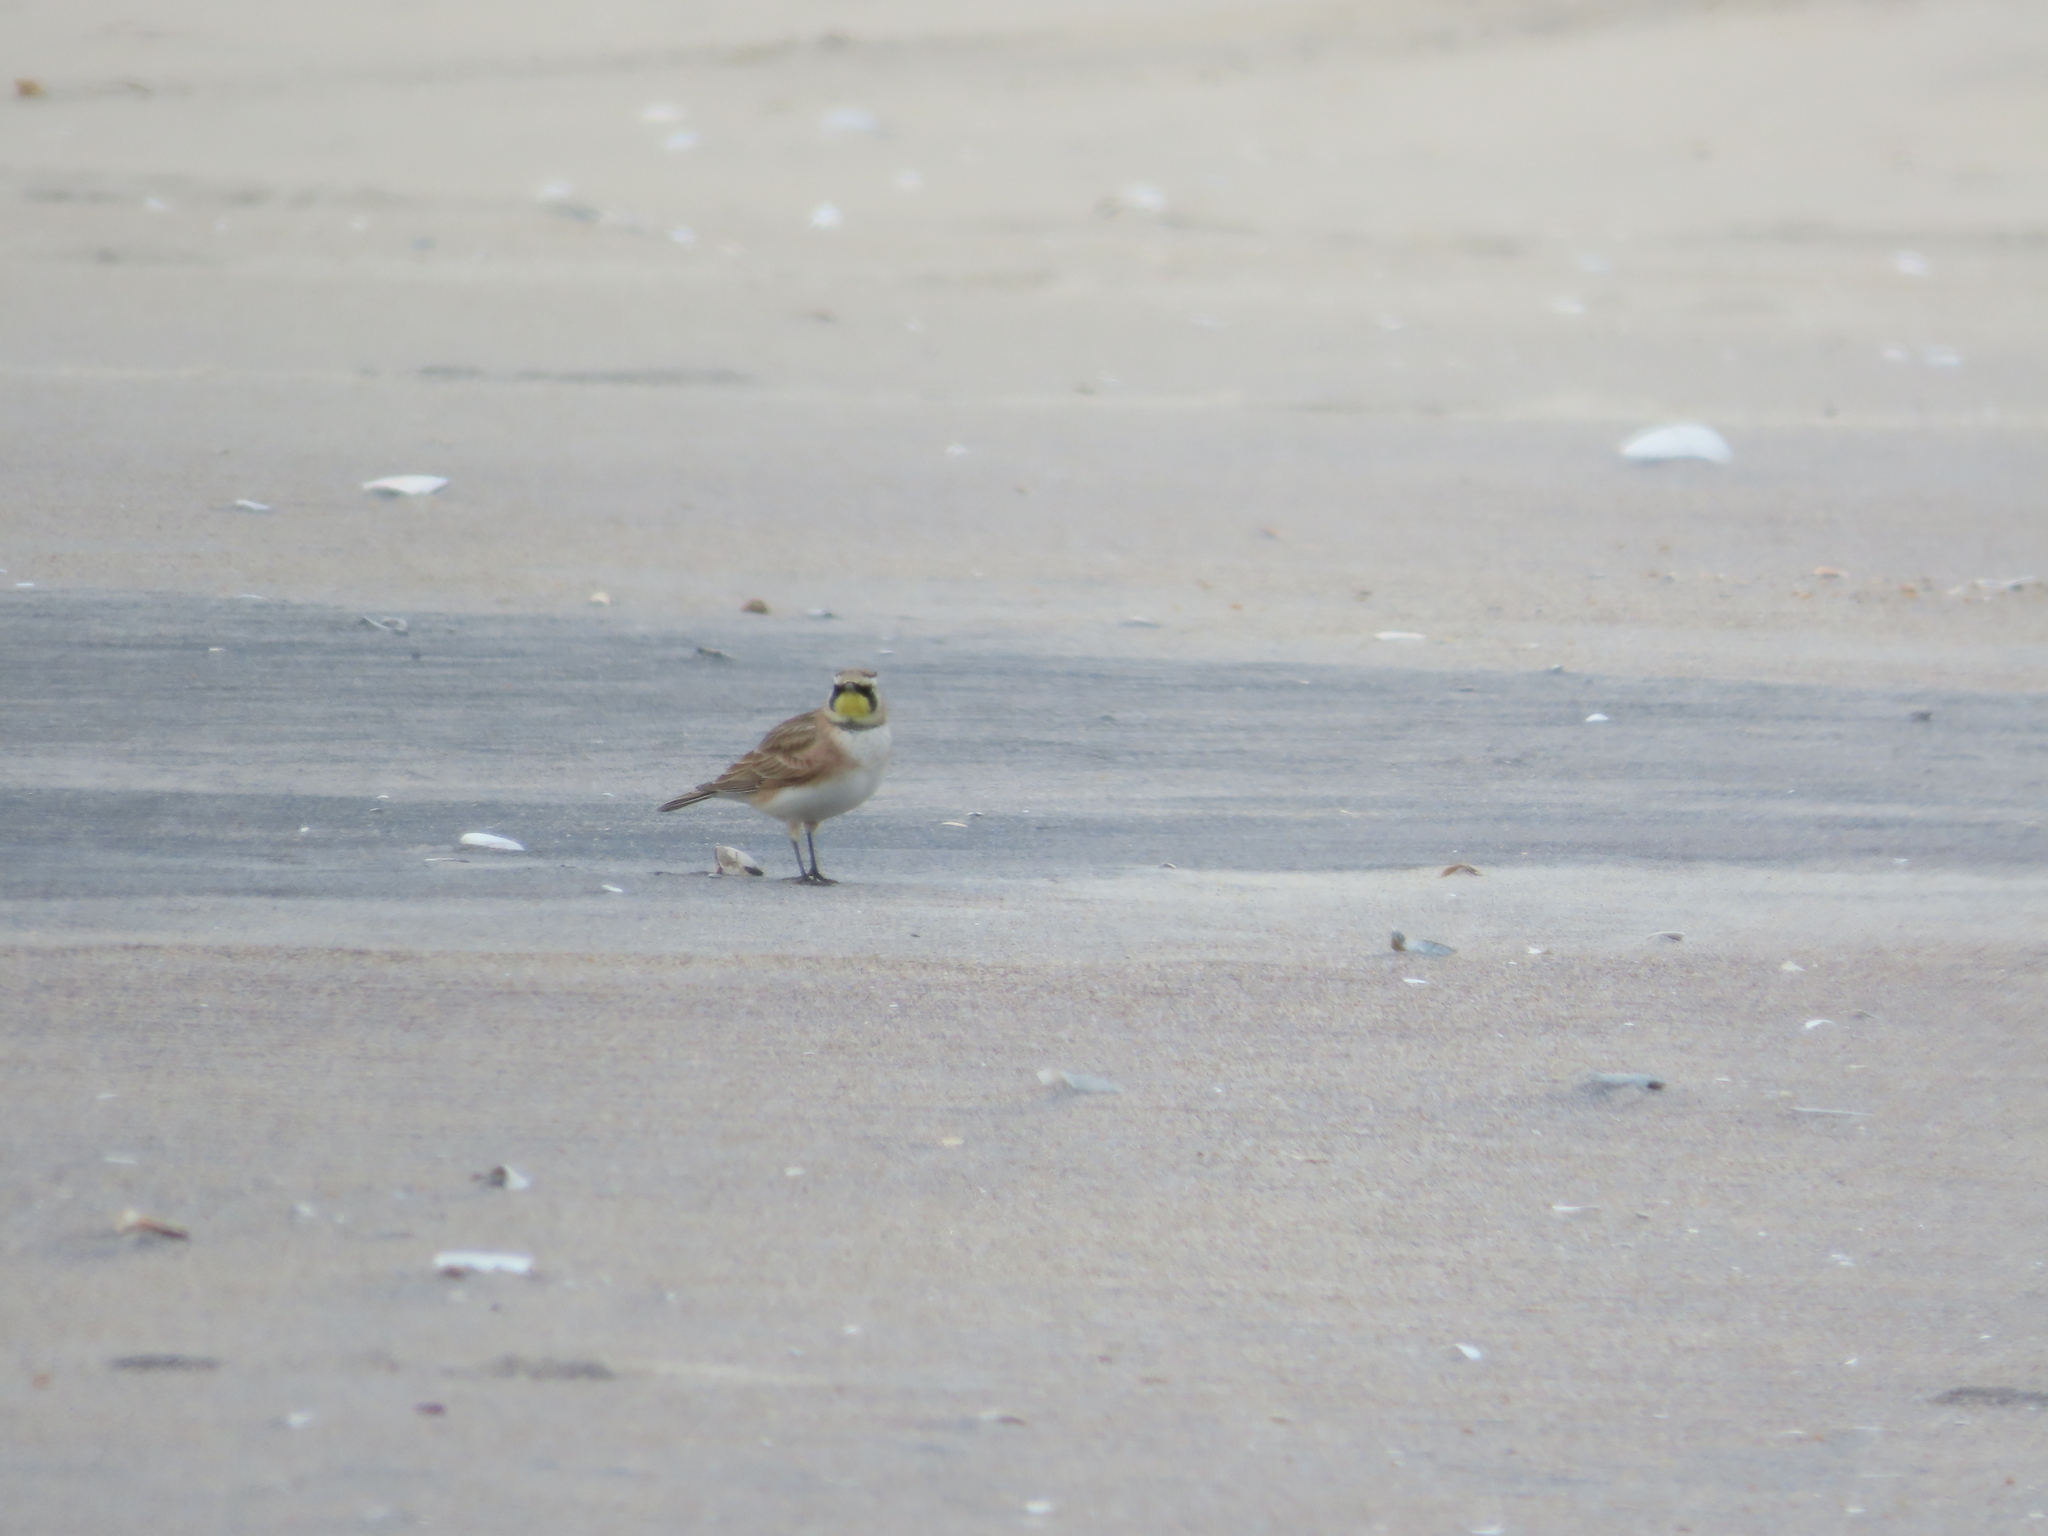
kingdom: Animalia
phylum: Chordata
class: Aves
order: Passeriformes
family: Alaudidae
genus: Eremophila
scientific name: Eremophila alpestris
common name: Horned lark
